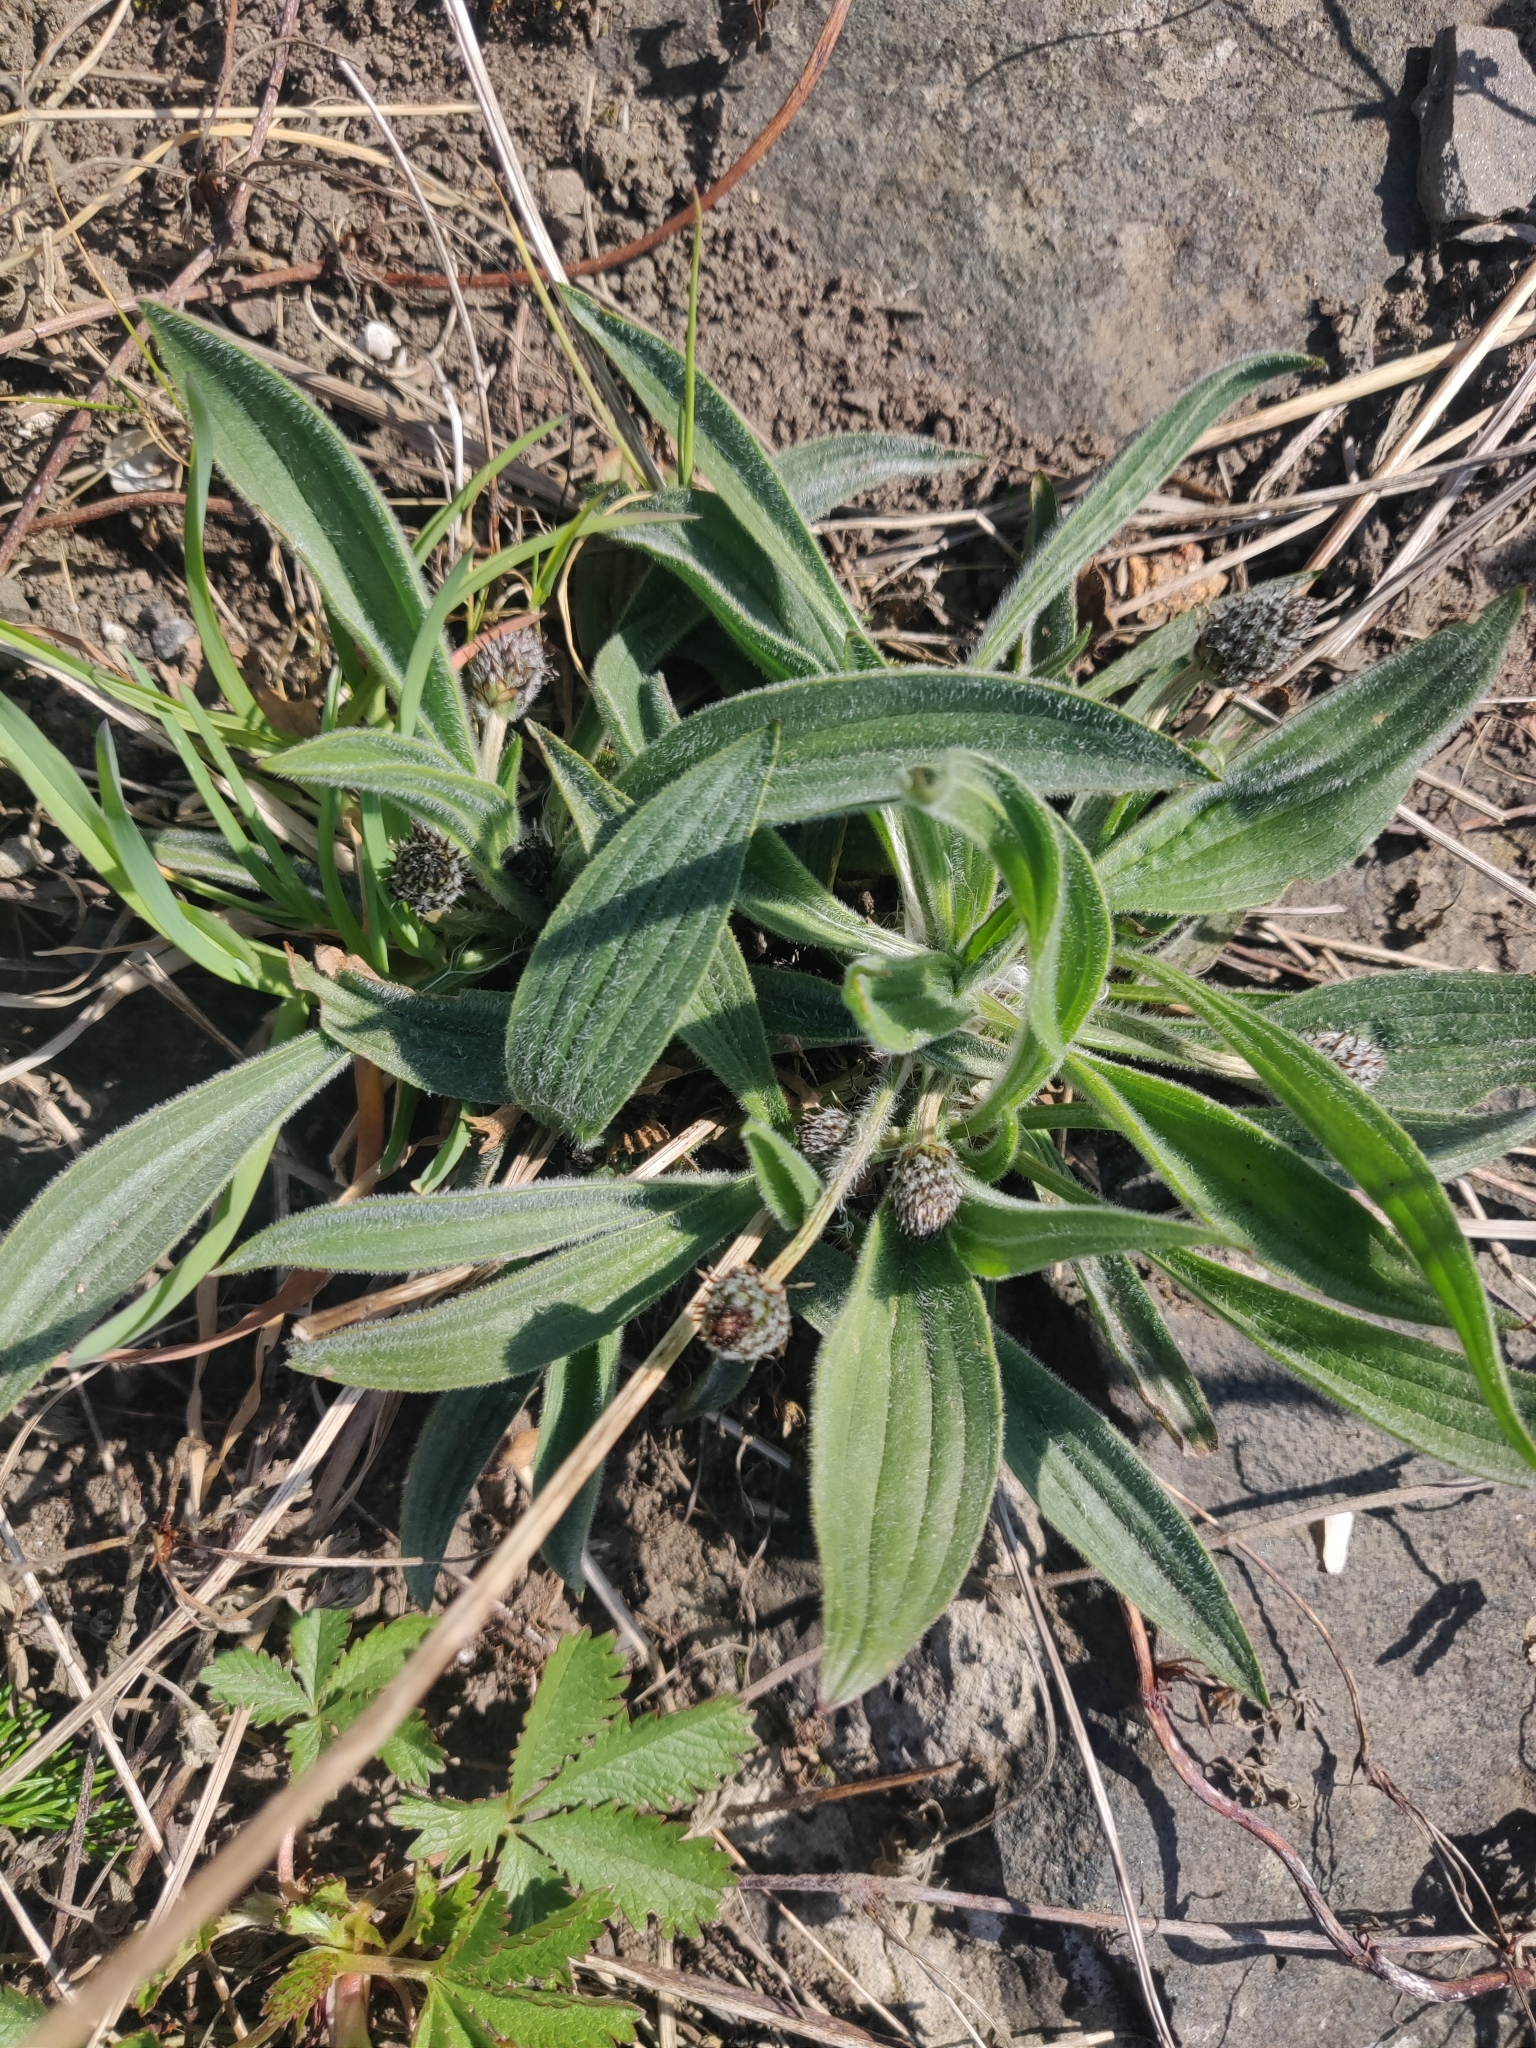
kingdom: Plantae
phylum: Tracheophyta
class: Magnoliopsida
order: Lamiales
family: Plantaginaceae
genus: Plantago
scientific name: Plantago lanceolata
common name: Ribwort plantain
